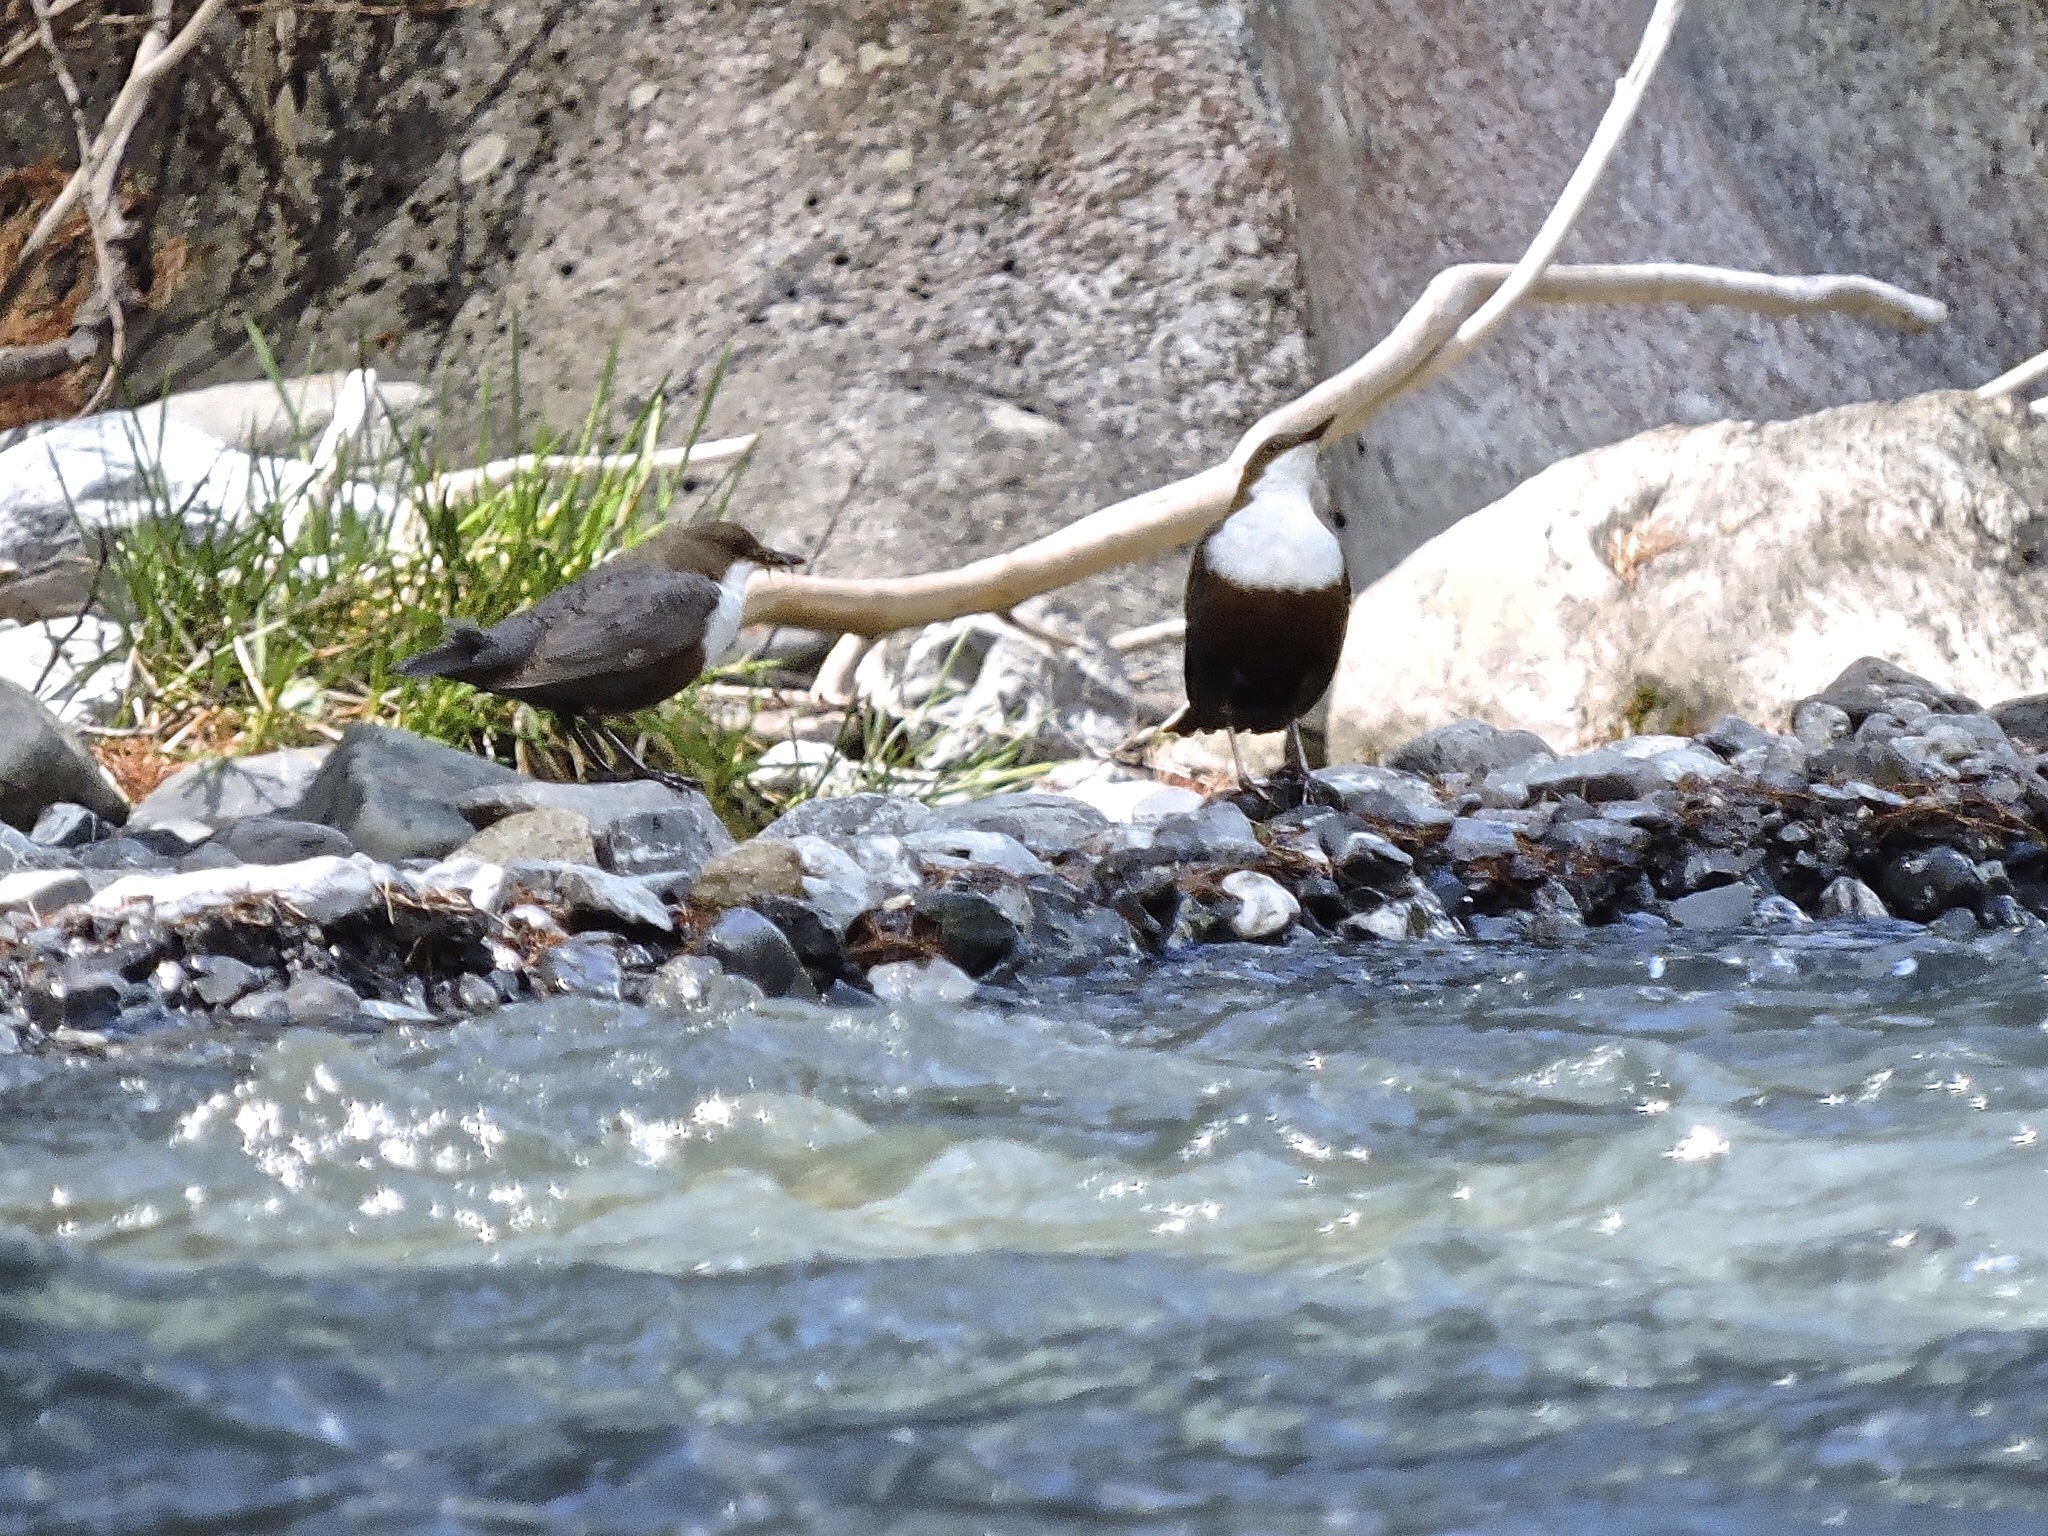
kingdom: Animalia
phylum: Chordata
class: Aves
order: Passeriformes
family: Cinclidae
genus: Cinclus
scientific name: Cinclus cinclus
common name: White-throated dipper
